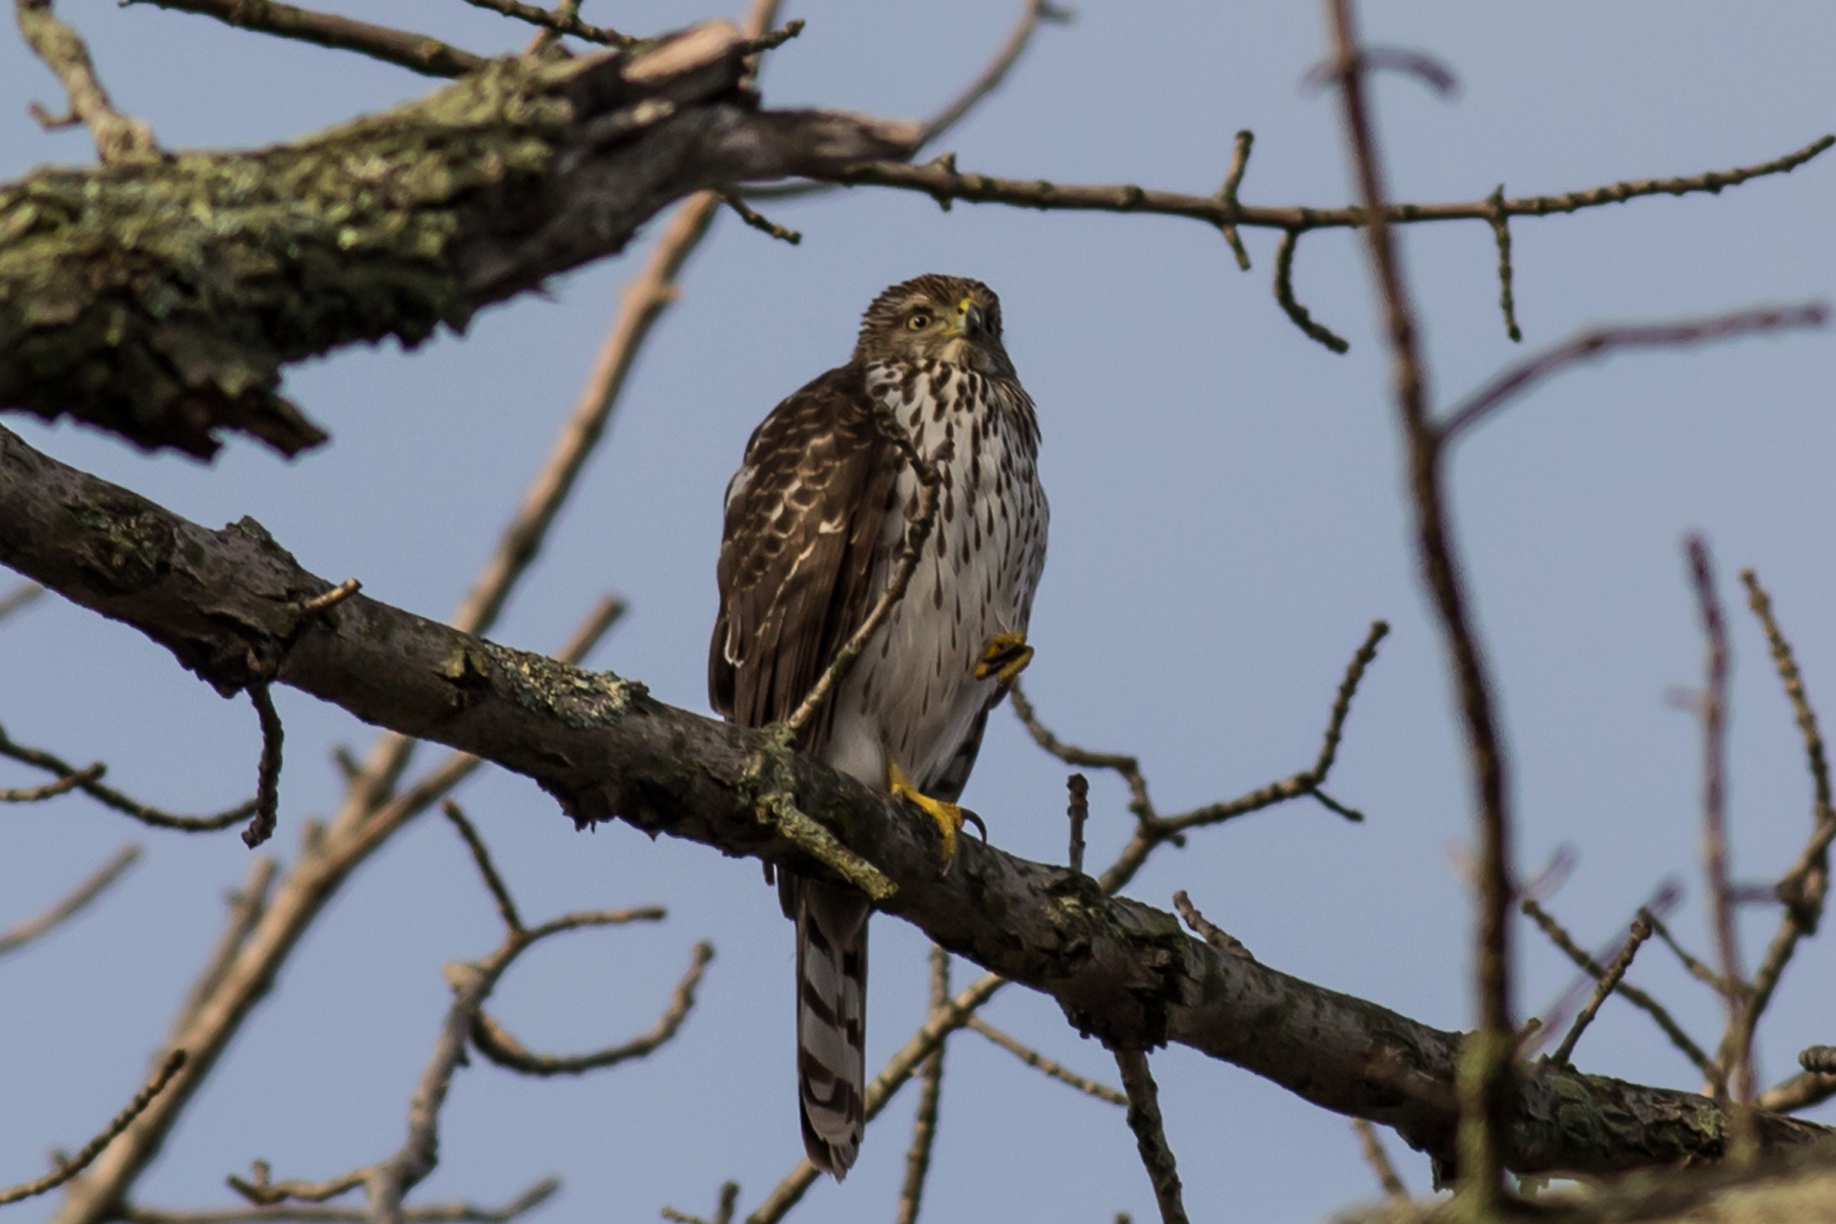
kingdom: Animalia
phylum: Chordata
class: Aves
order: Accipitriformes
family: Accipitridae
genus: Accipiter
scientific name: Accipiter cooperii
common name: Cooper's hawk
